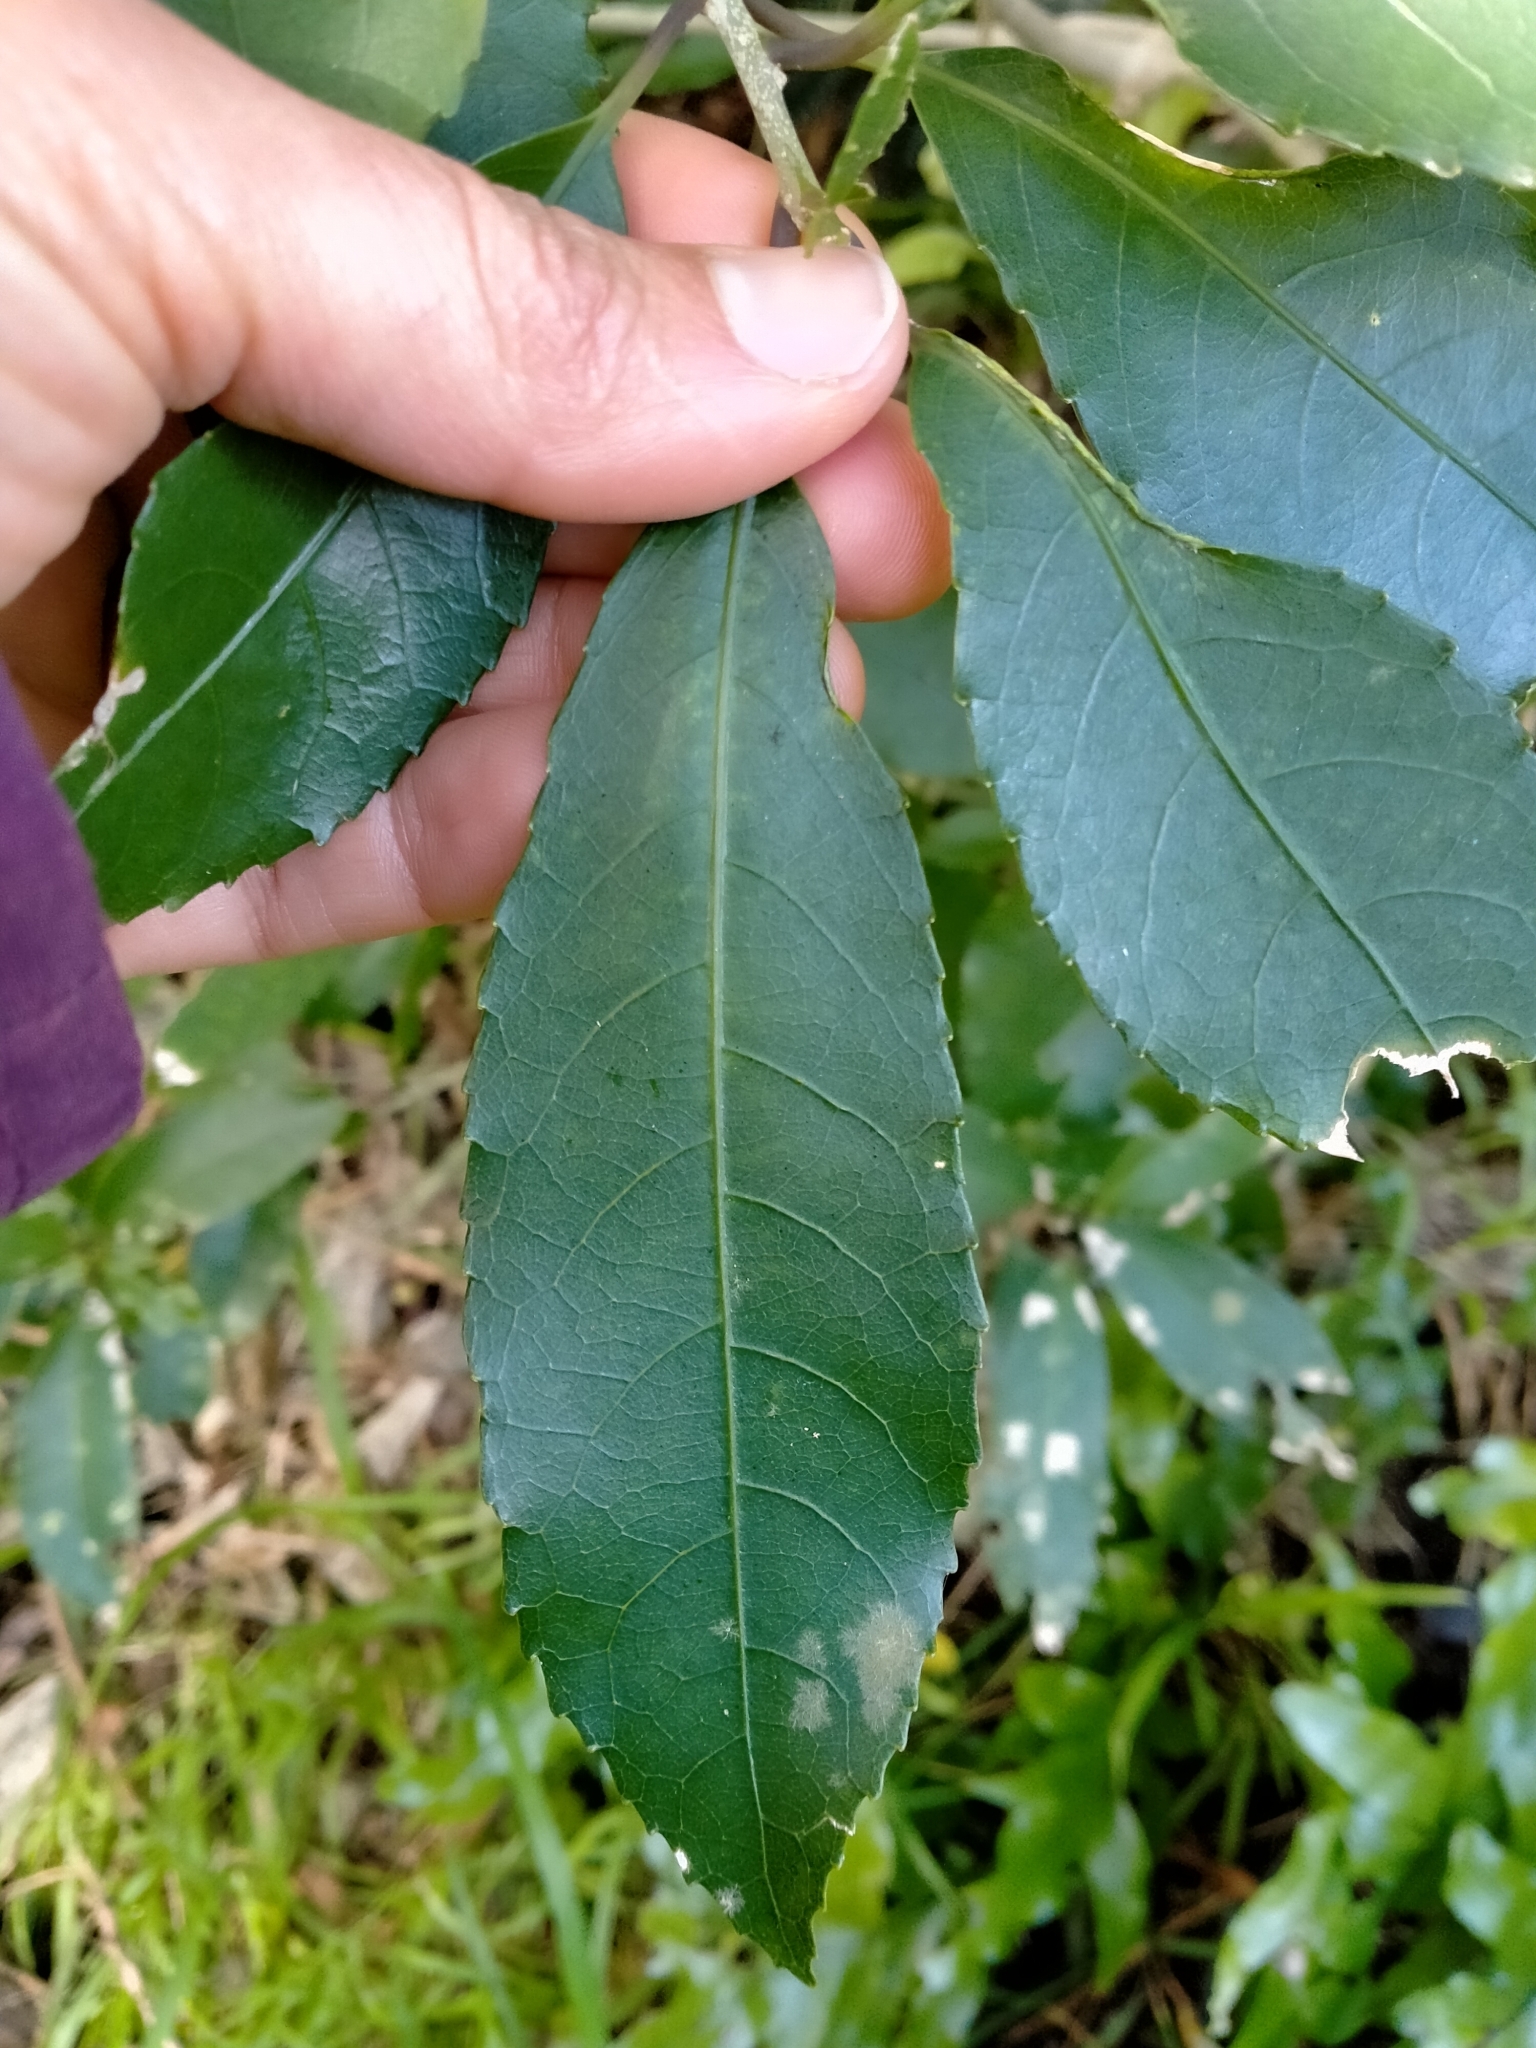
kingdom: Plantae
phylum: Tracheophyta
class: Magnoliopsida
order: Malpighiales
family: Violaceae
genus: Melicytus
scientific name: Melicytus ramiflorus
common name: Mahoe
